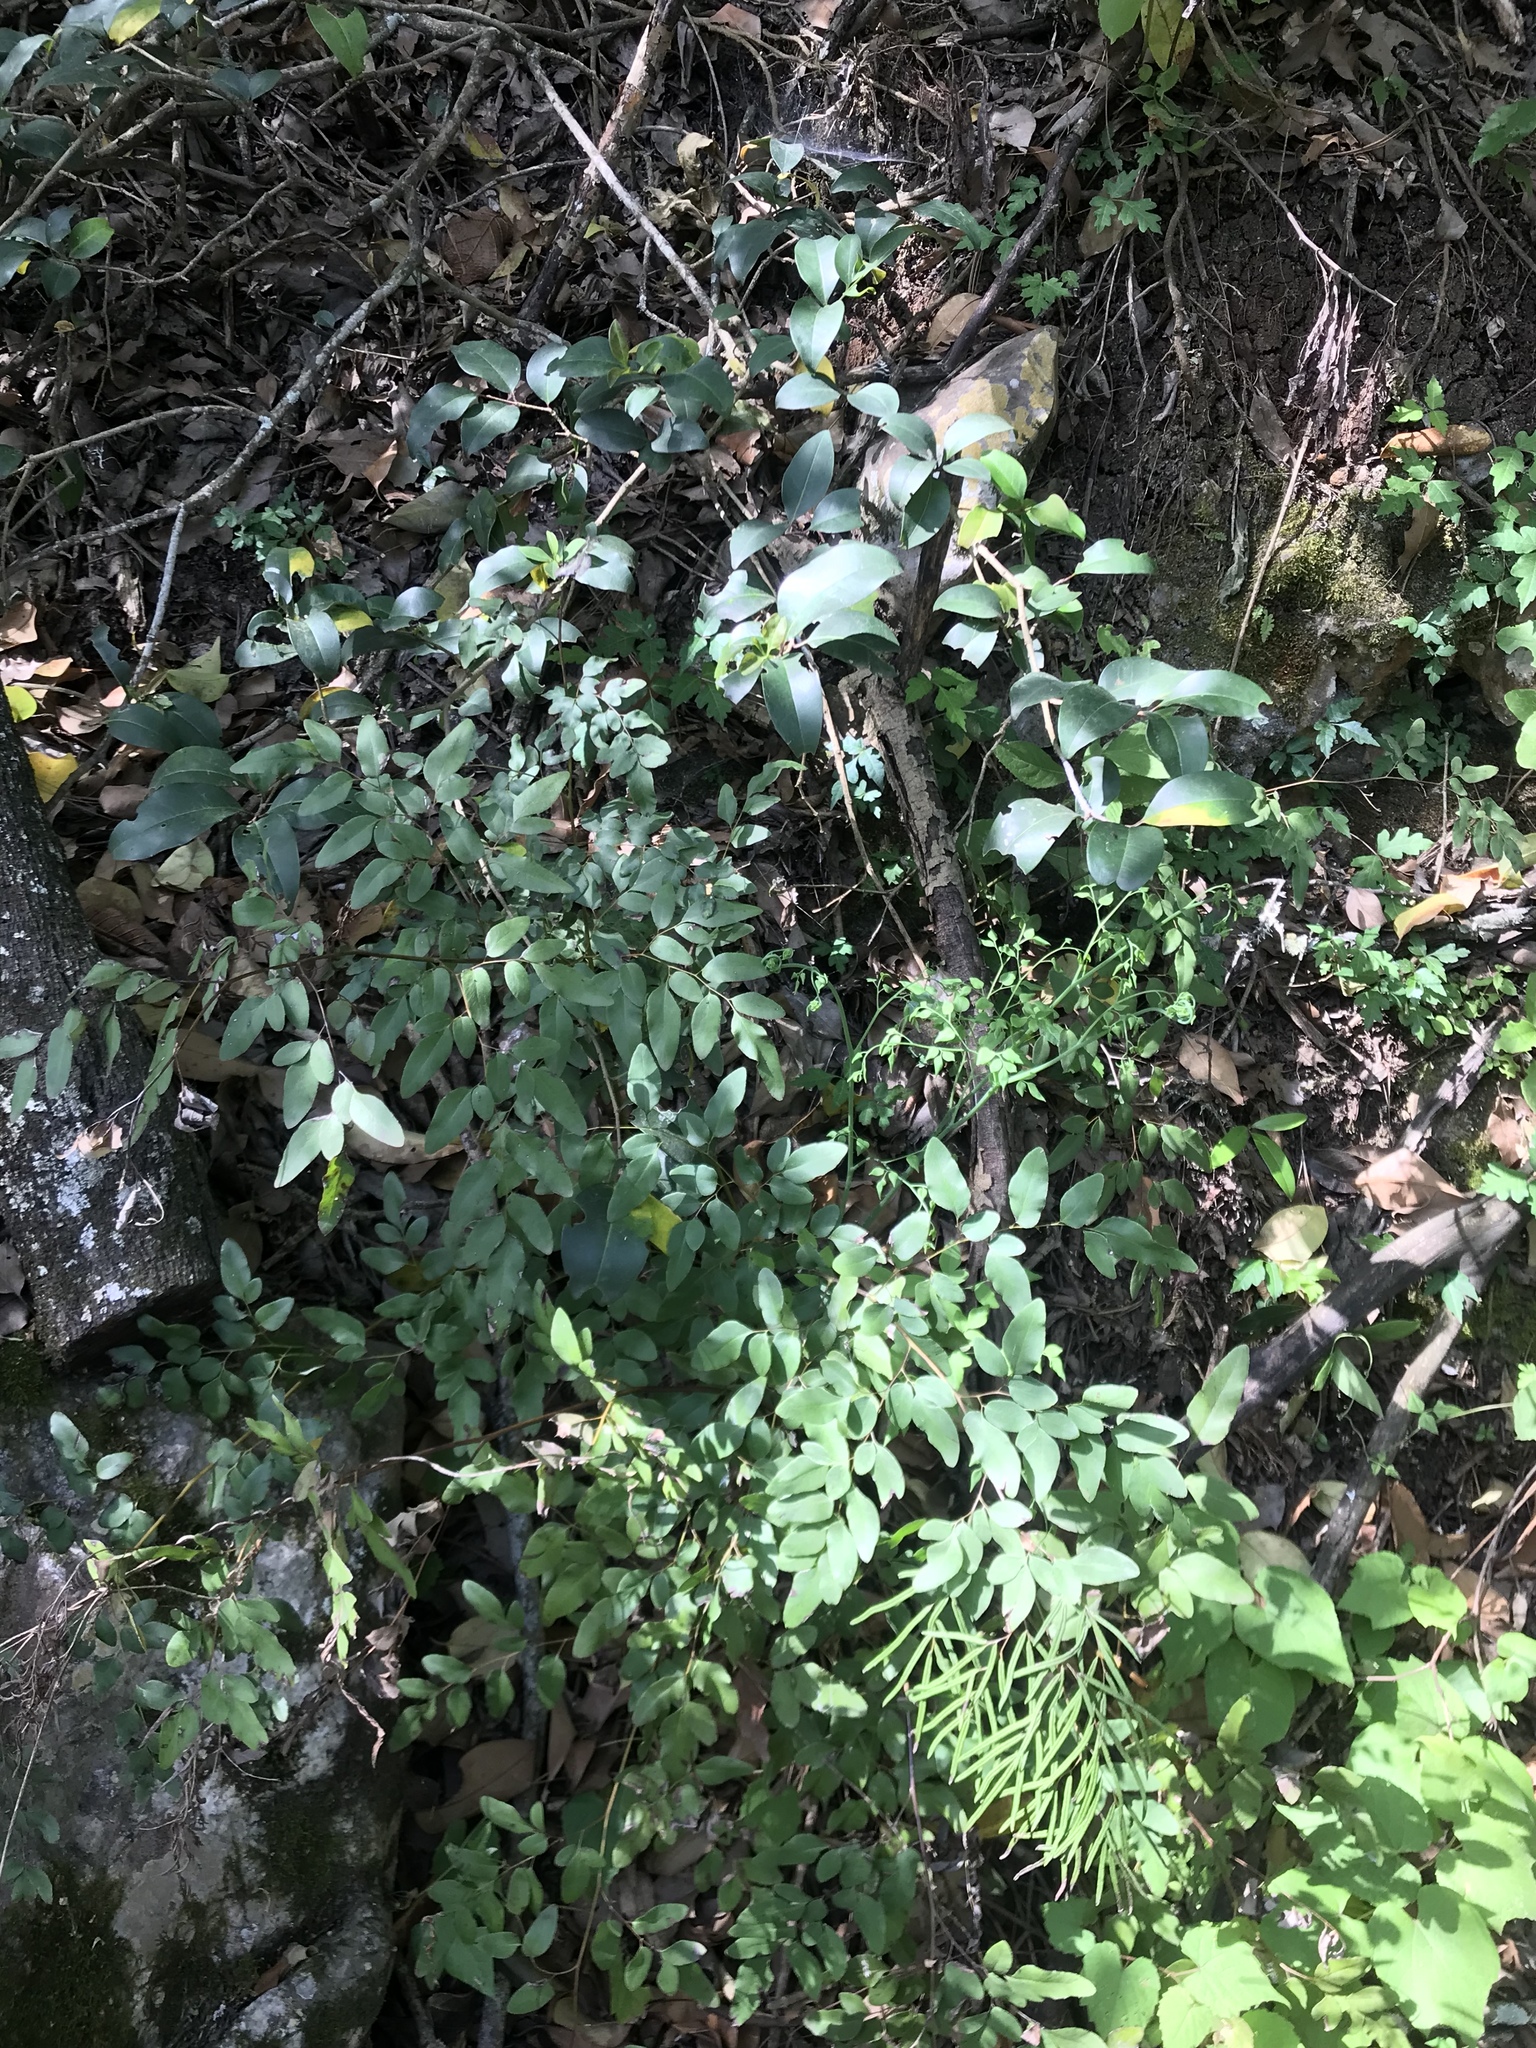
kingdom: Plantae
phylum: Tracheophyta
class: Polypodiopsida
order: Polypodiales
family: Pteridaceae
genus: Llavea
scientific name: Llavea cordifolia
